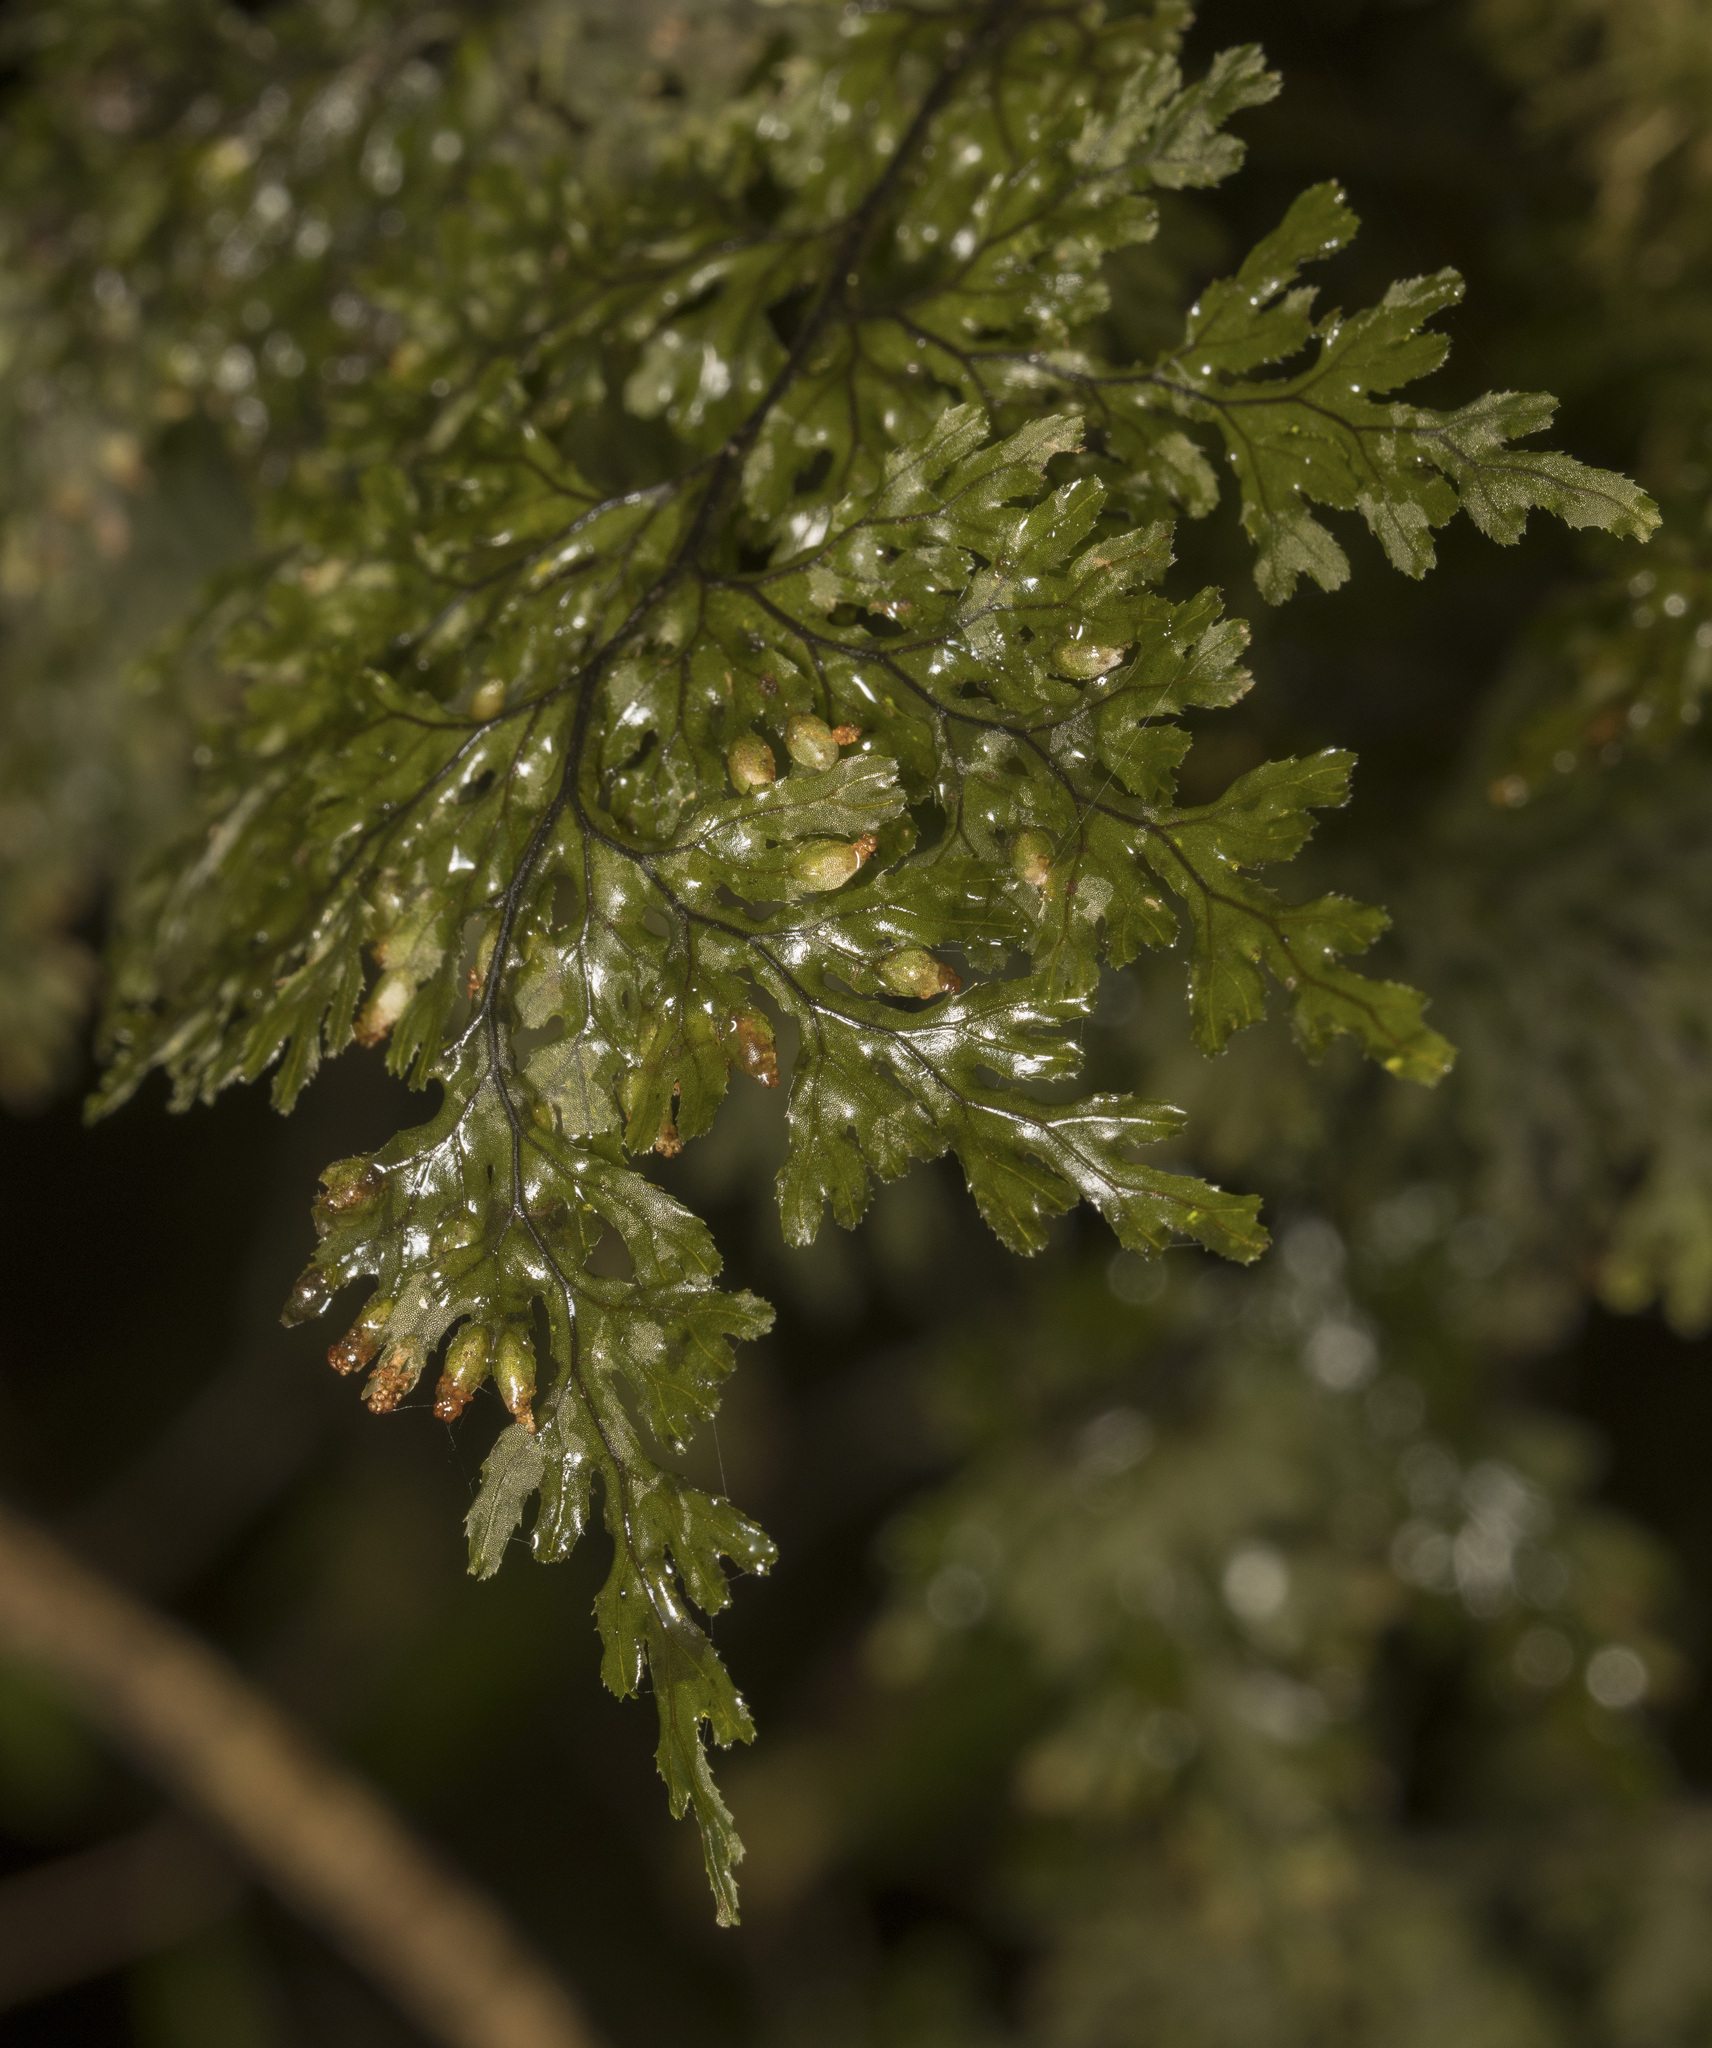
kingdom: Plantae
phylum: Tracheophyta
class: Polypodiopsida
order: Hymenophyllales
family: Hymenophyllaceae
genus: Hymenophyllum
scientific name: Hymenophyllum krauseanum
